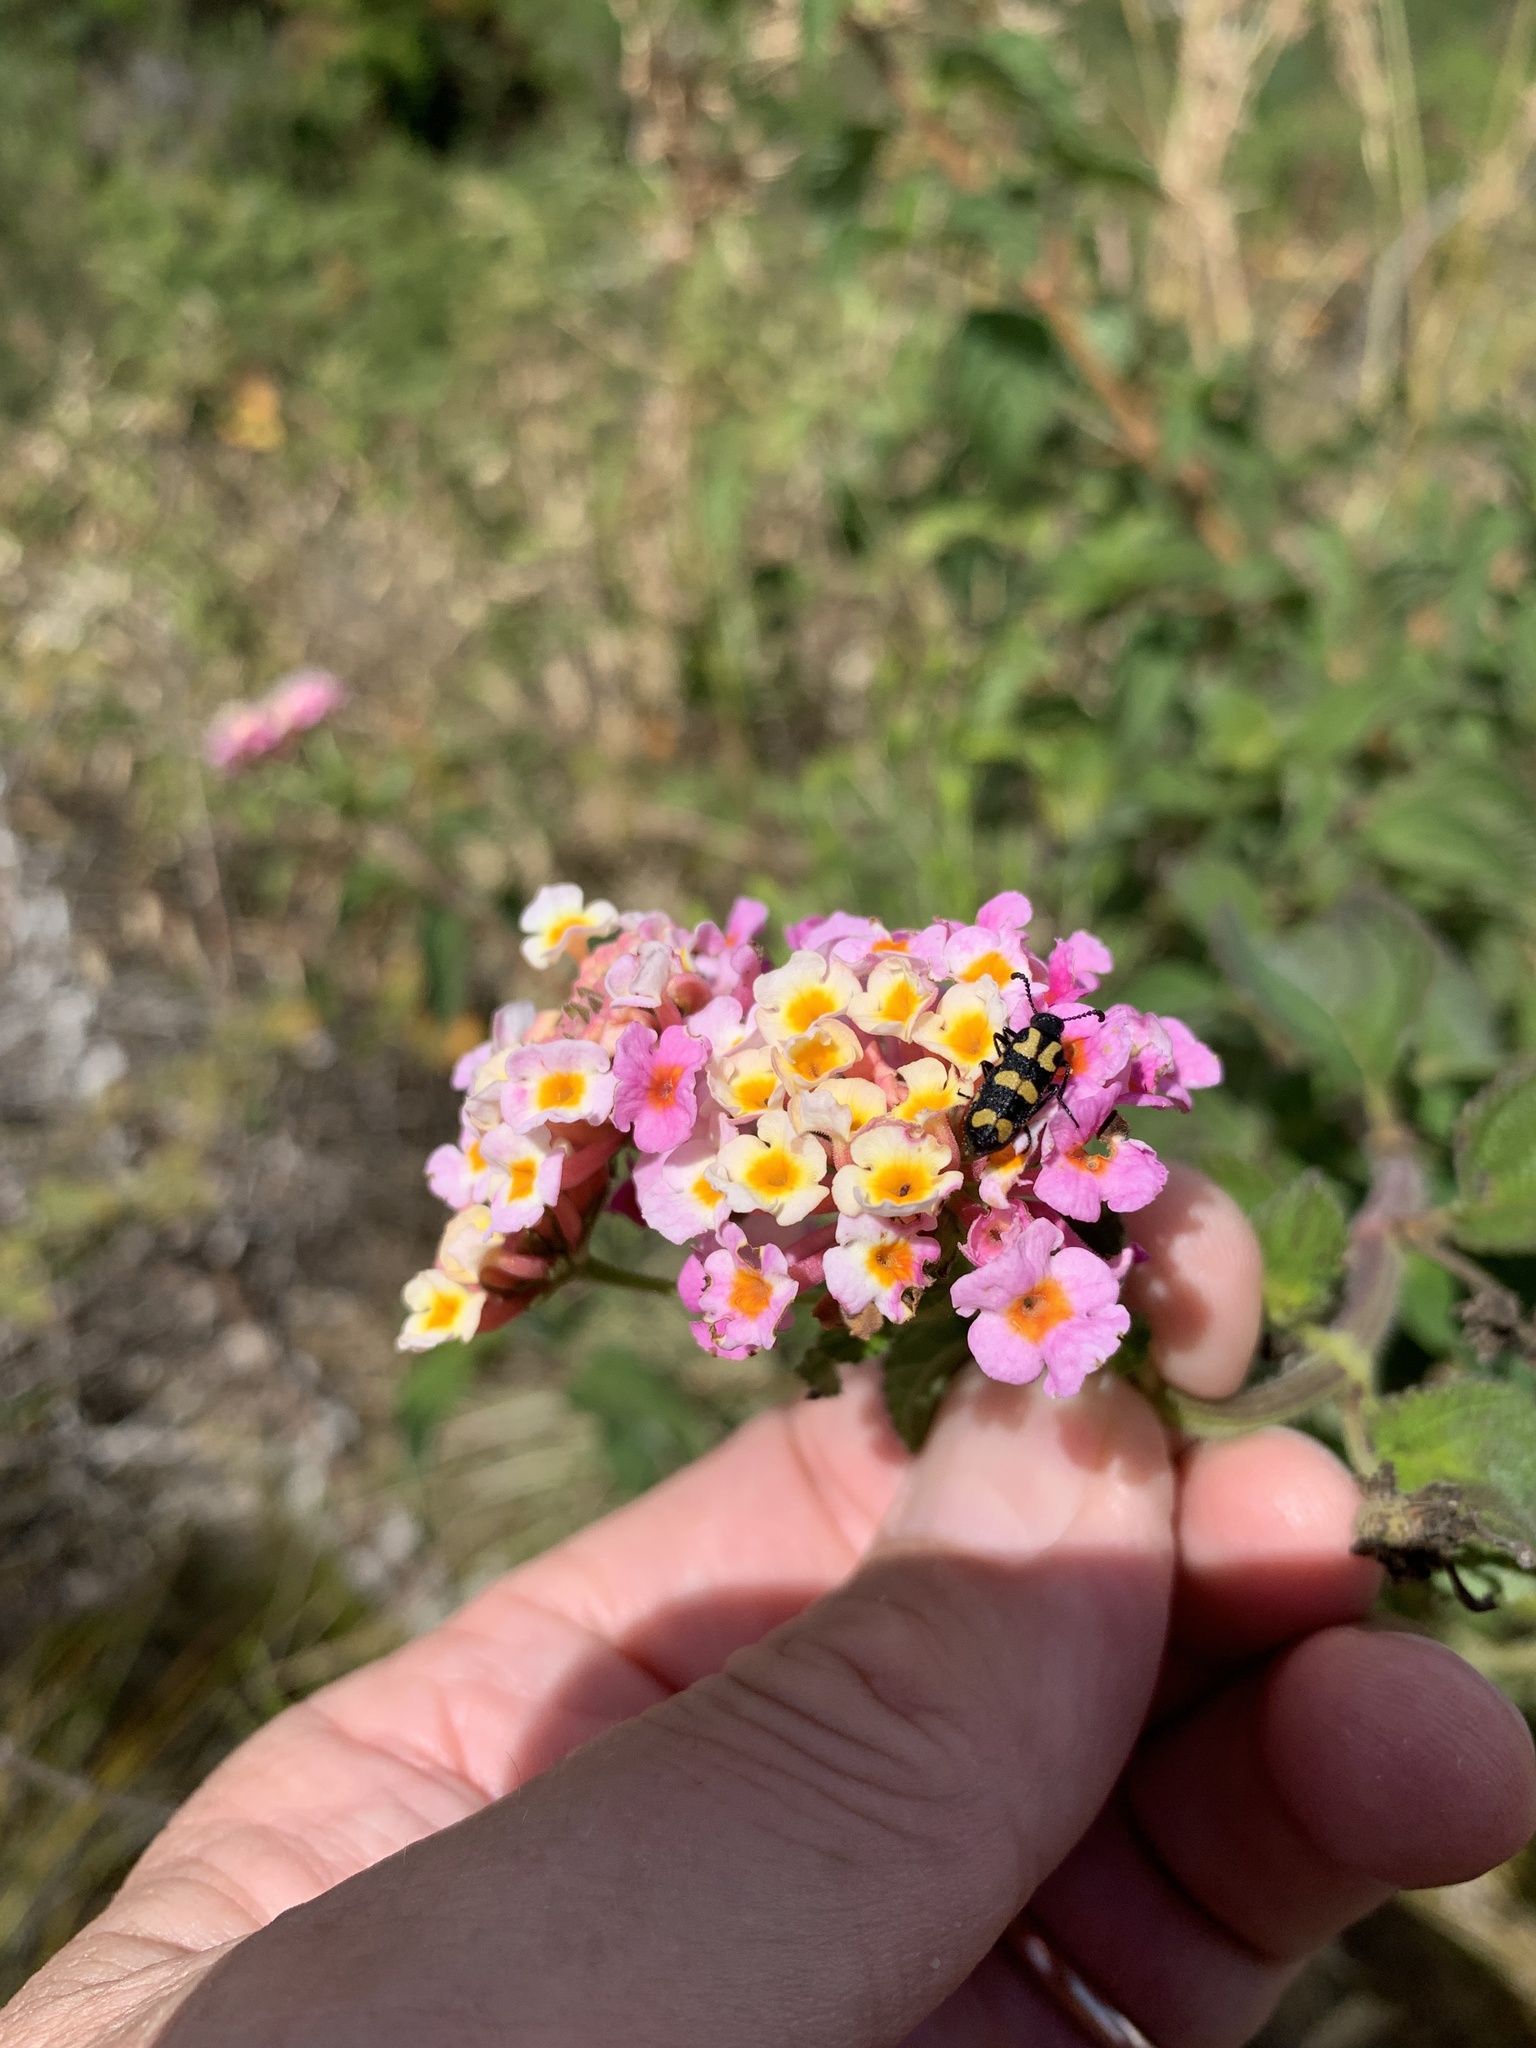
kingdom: Plantae
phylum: Tracheophyta
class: Magnoliopsida
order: Lamiales
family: Verbenaceae
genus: Lantana
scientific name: Lantana camara
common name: Lantana
